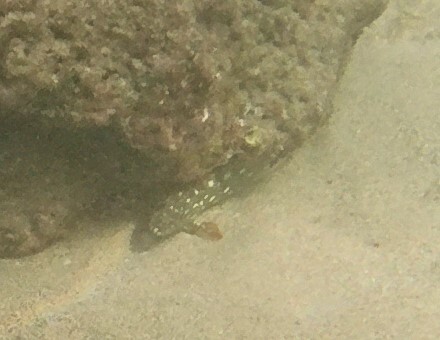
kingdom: Animalia
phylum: Chordata
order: Perciformes
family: Serranidae
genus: Epinephelus
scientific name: Epinephelus labriformis
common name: Flag cabrilla
